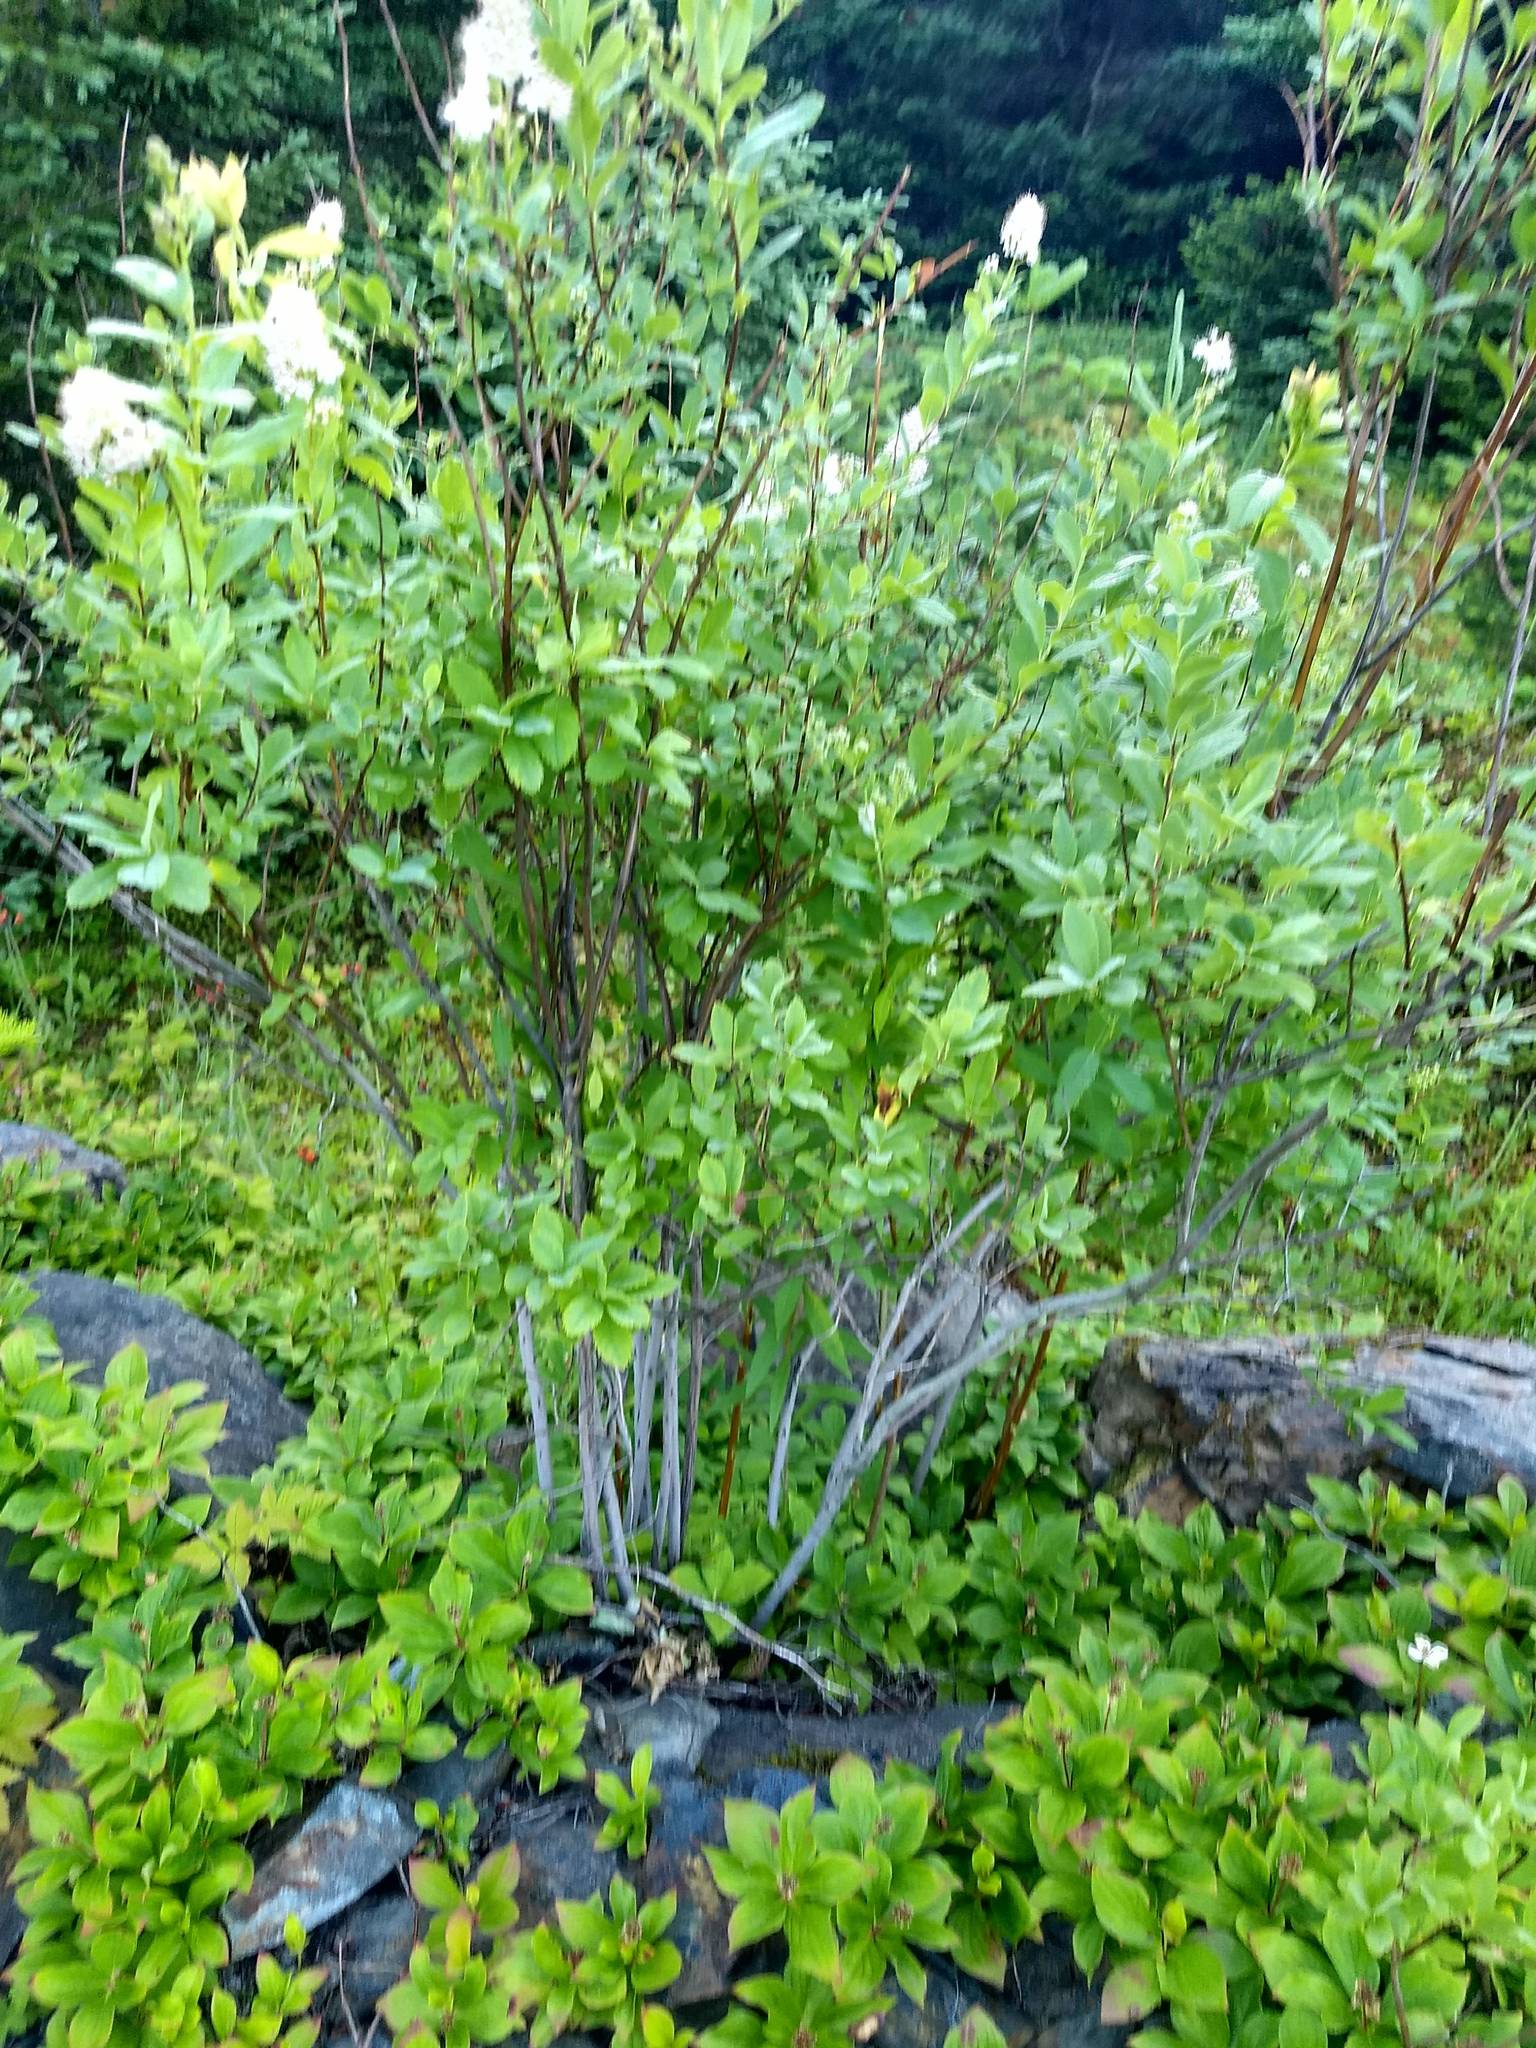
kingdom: Plantae
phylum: Tracheophyta
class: Magnoliopsida
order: Rosales
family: Rosaceae
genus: Spiraea
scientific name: Spiraea alba
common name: Pale bridewort
